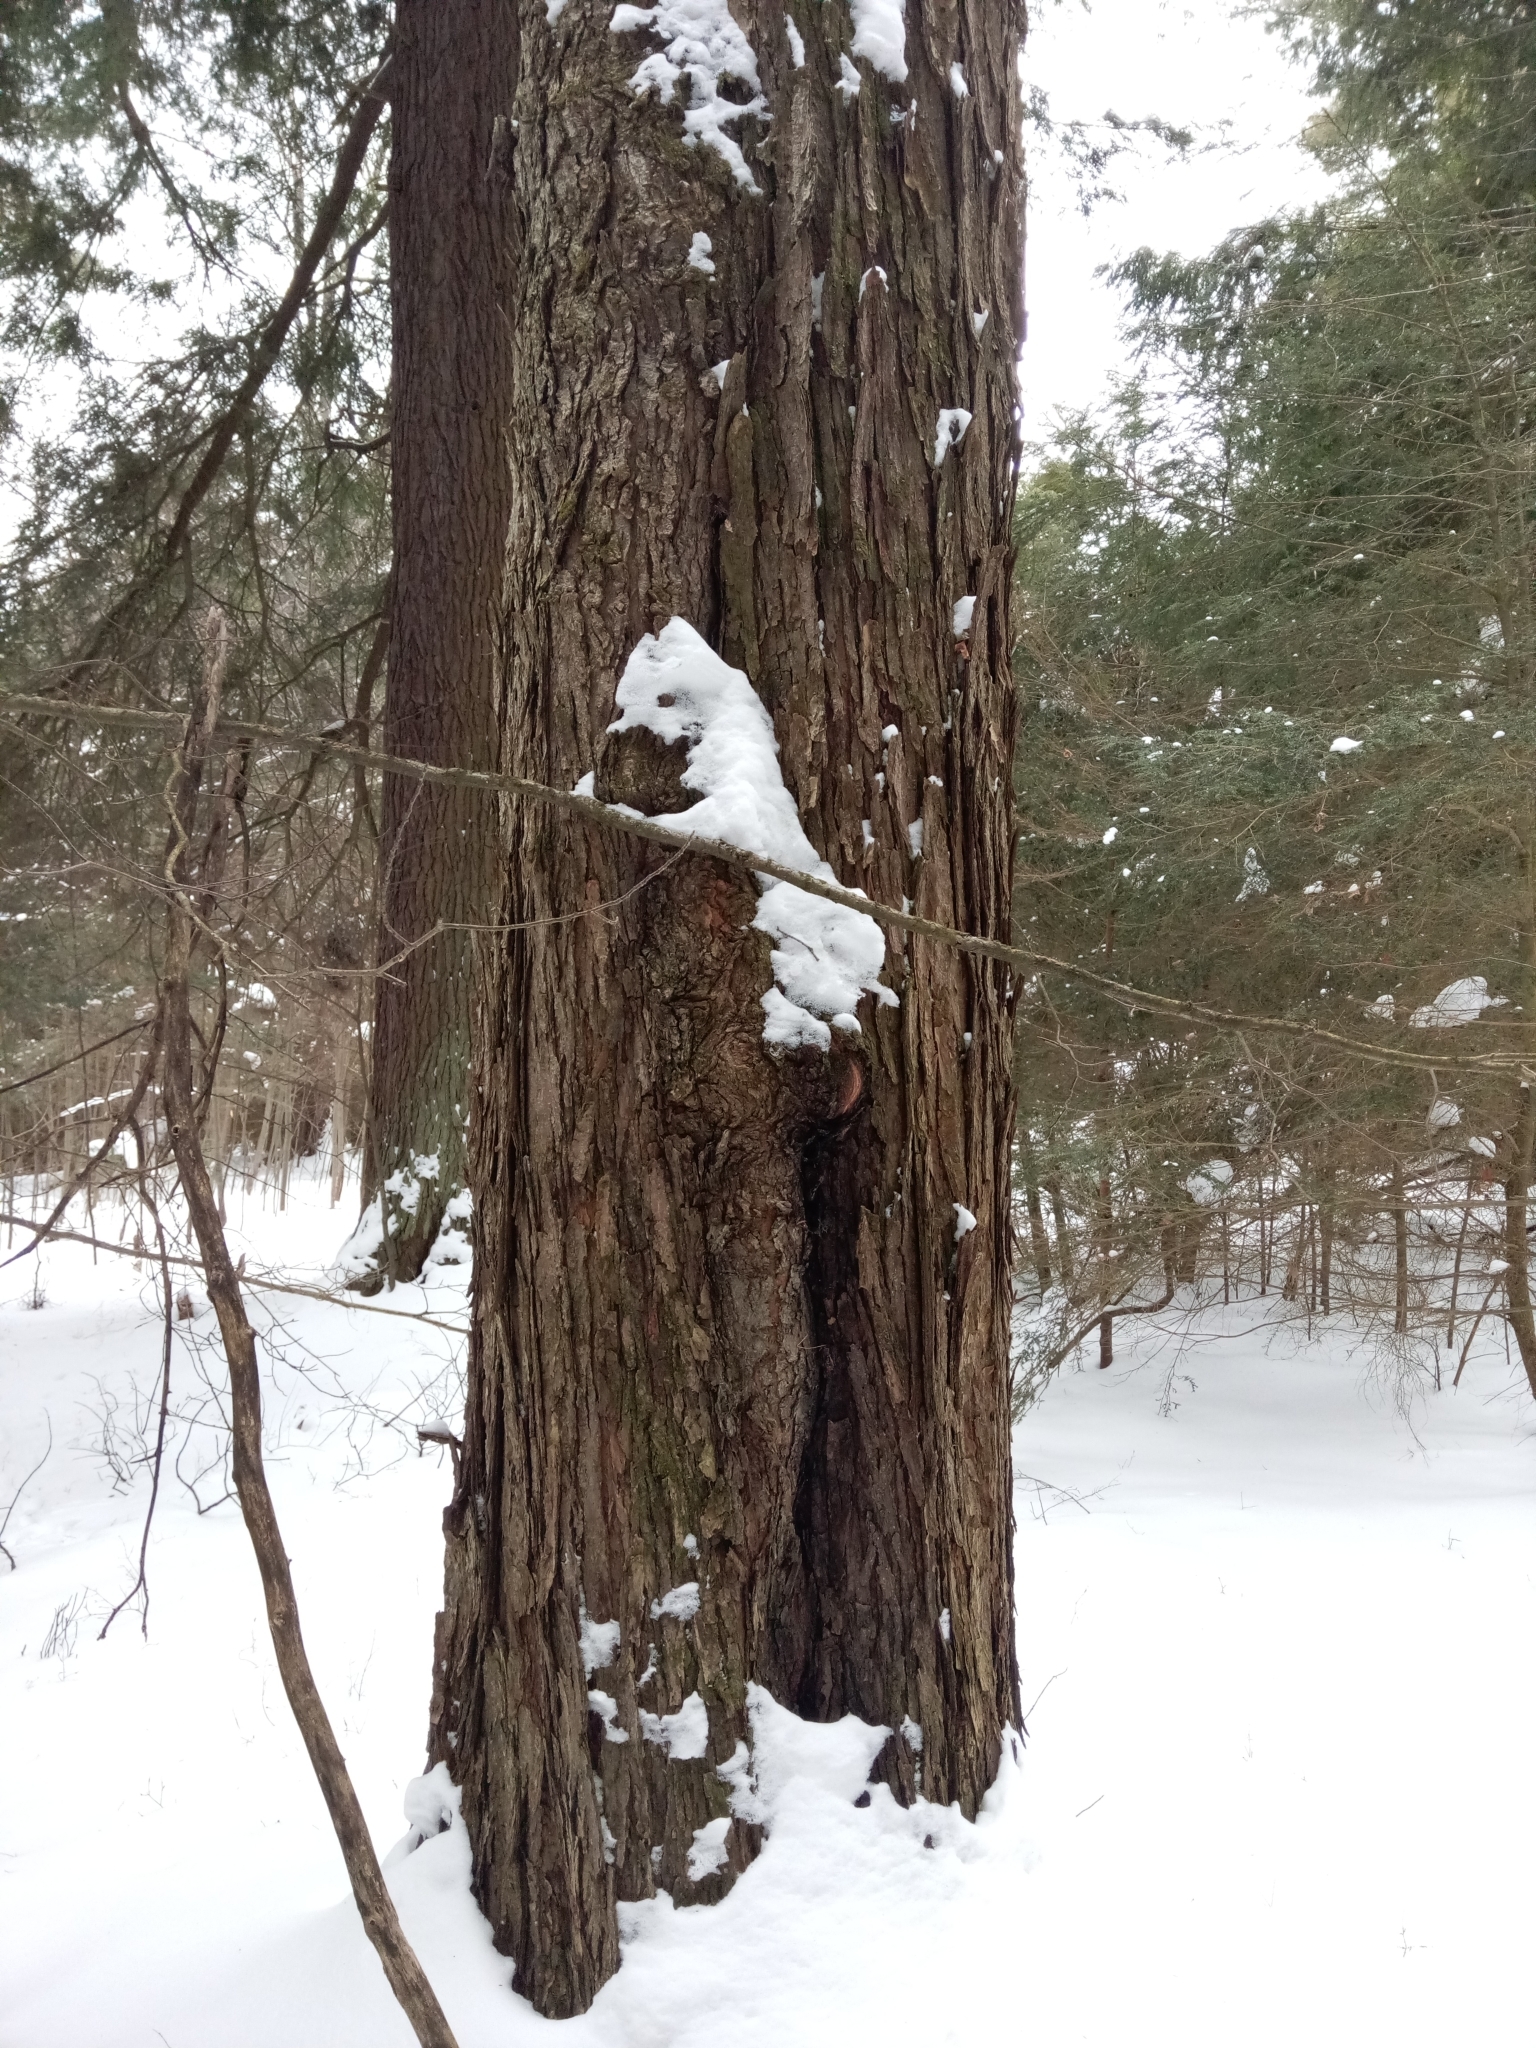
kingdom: Plantae
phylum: Tracheophyta
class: Magnoliopsida
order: Sapindales
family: Sapindaceae
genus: Acer
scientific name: Acer rubrum
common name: Red maple
